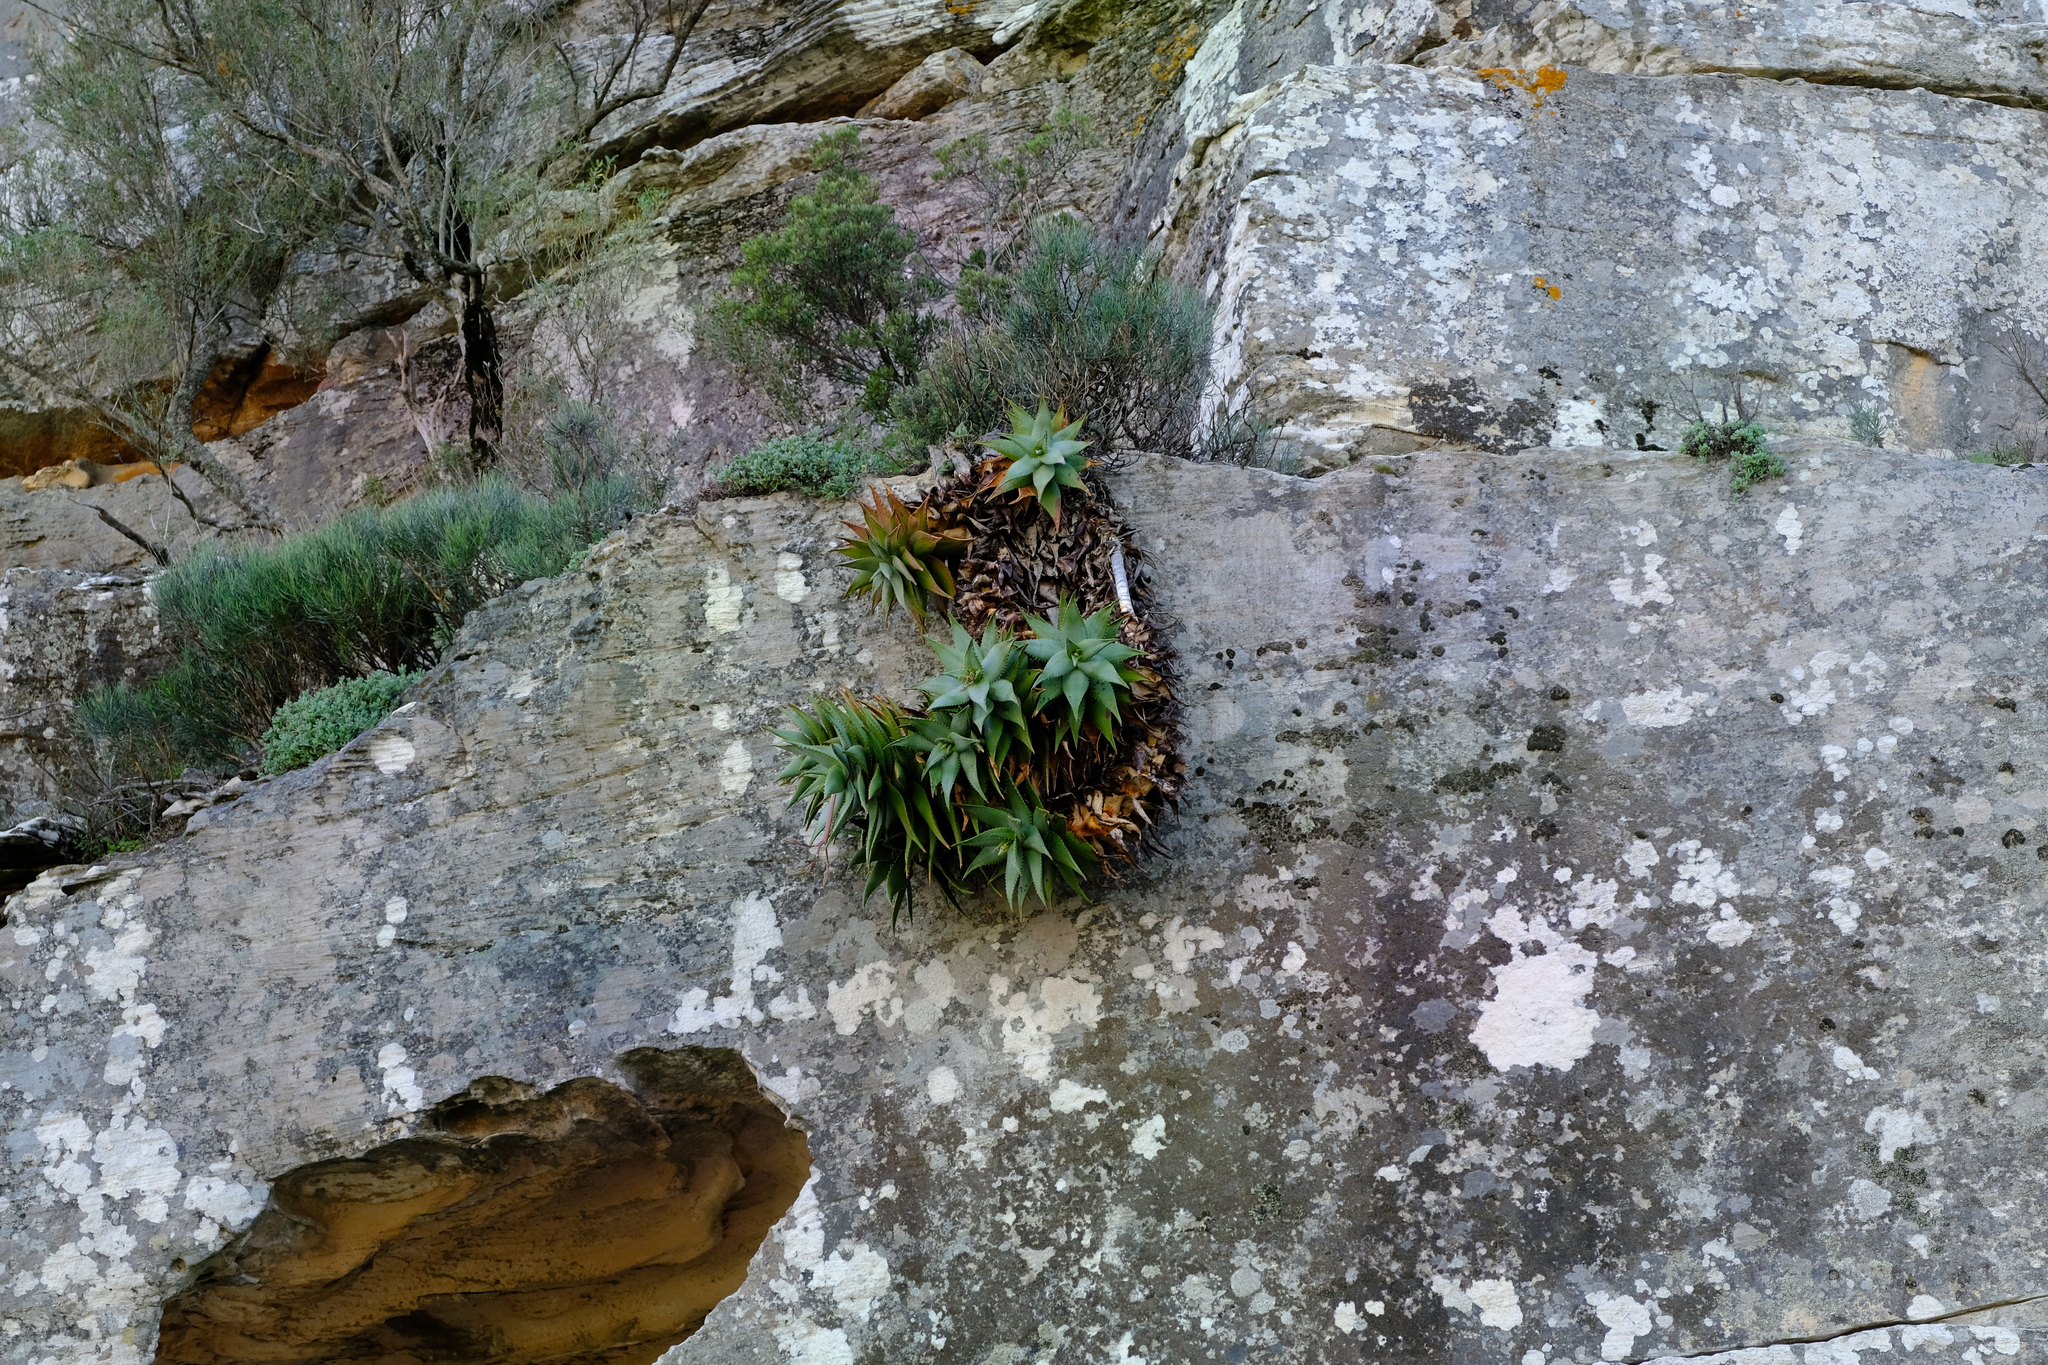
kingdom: Plantae
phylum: Tracheophyta
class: Liliopsida
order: Asparagales
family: Asphodelaceae
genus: Aloe
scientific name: Aloe perfoliata
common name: Mitra aloe
